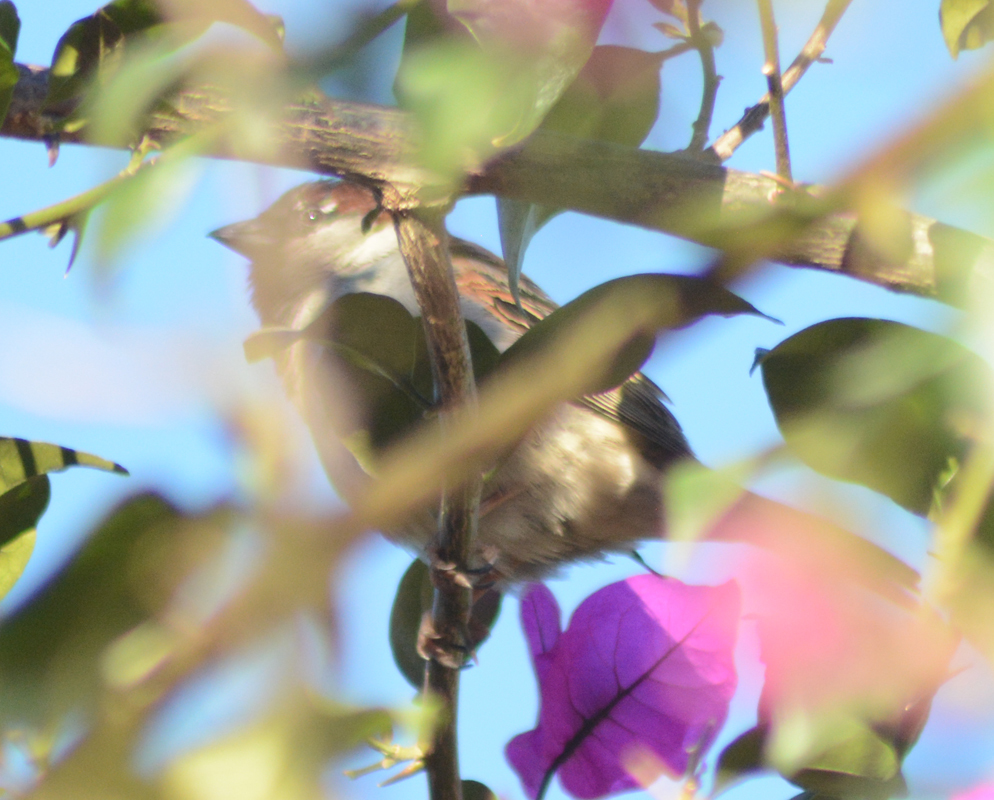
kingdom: Animalia
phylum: Chordata
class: Aves
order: Passeriformes
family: Passeridae
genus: Passer
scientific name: Passer domesticus
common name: House sparrow
